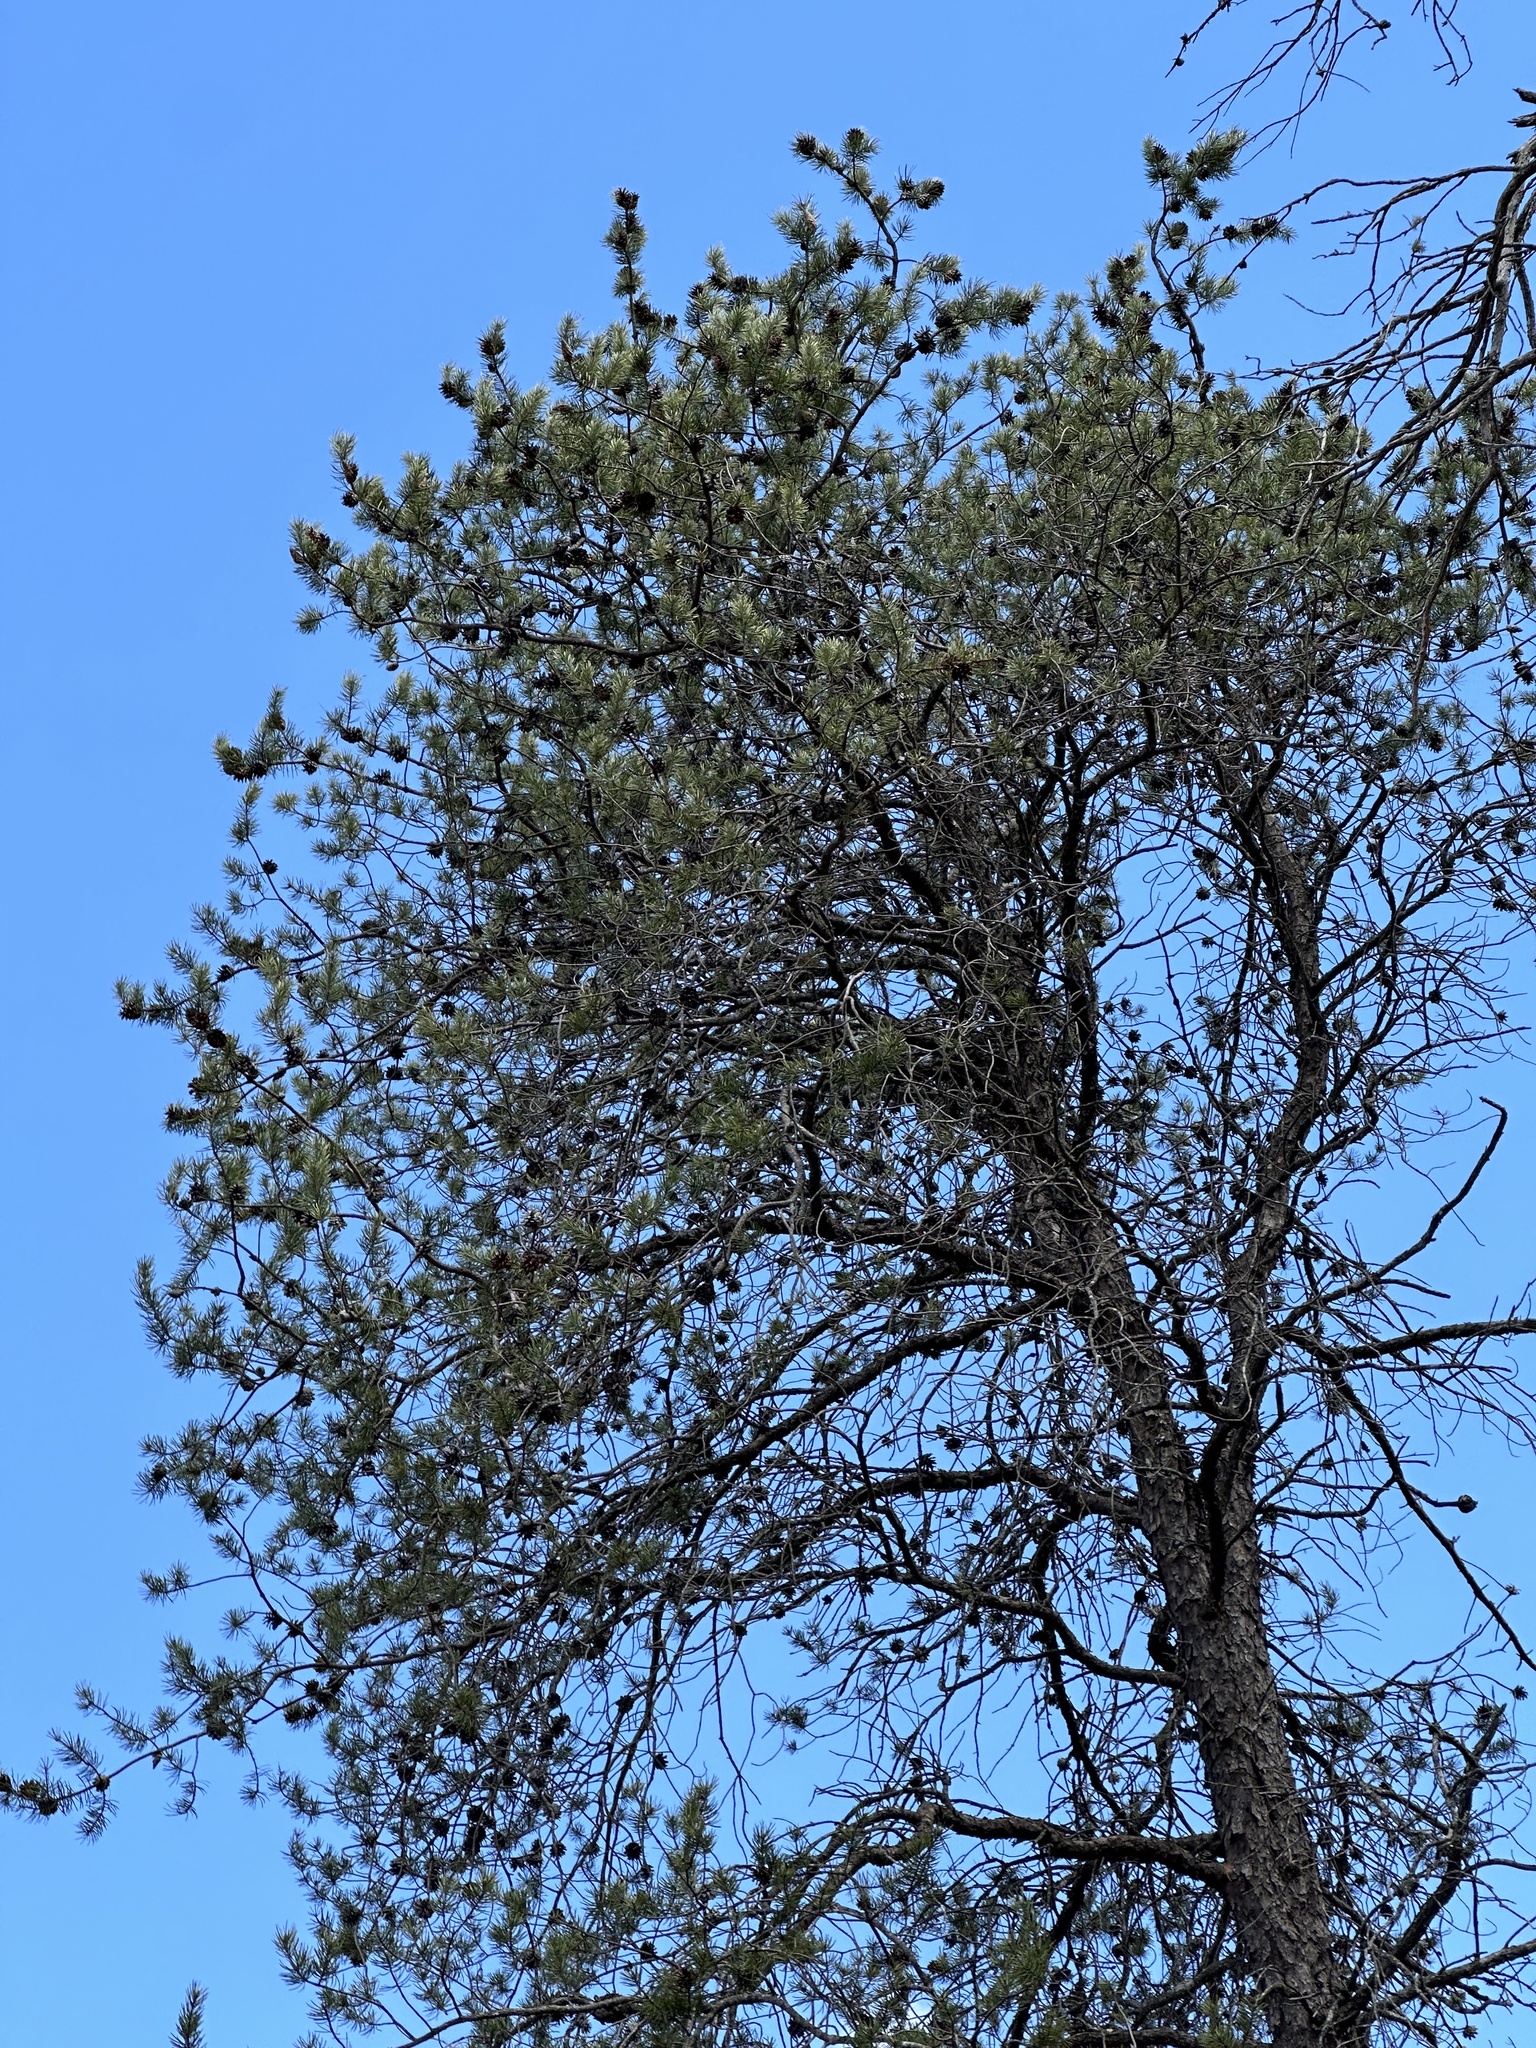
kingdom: Plantae
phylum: Tracheophyta
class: Pinopsida
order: Pinales
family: Pinaceae
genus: Pinus
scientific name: Pinus banksiana
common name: Jack pine
